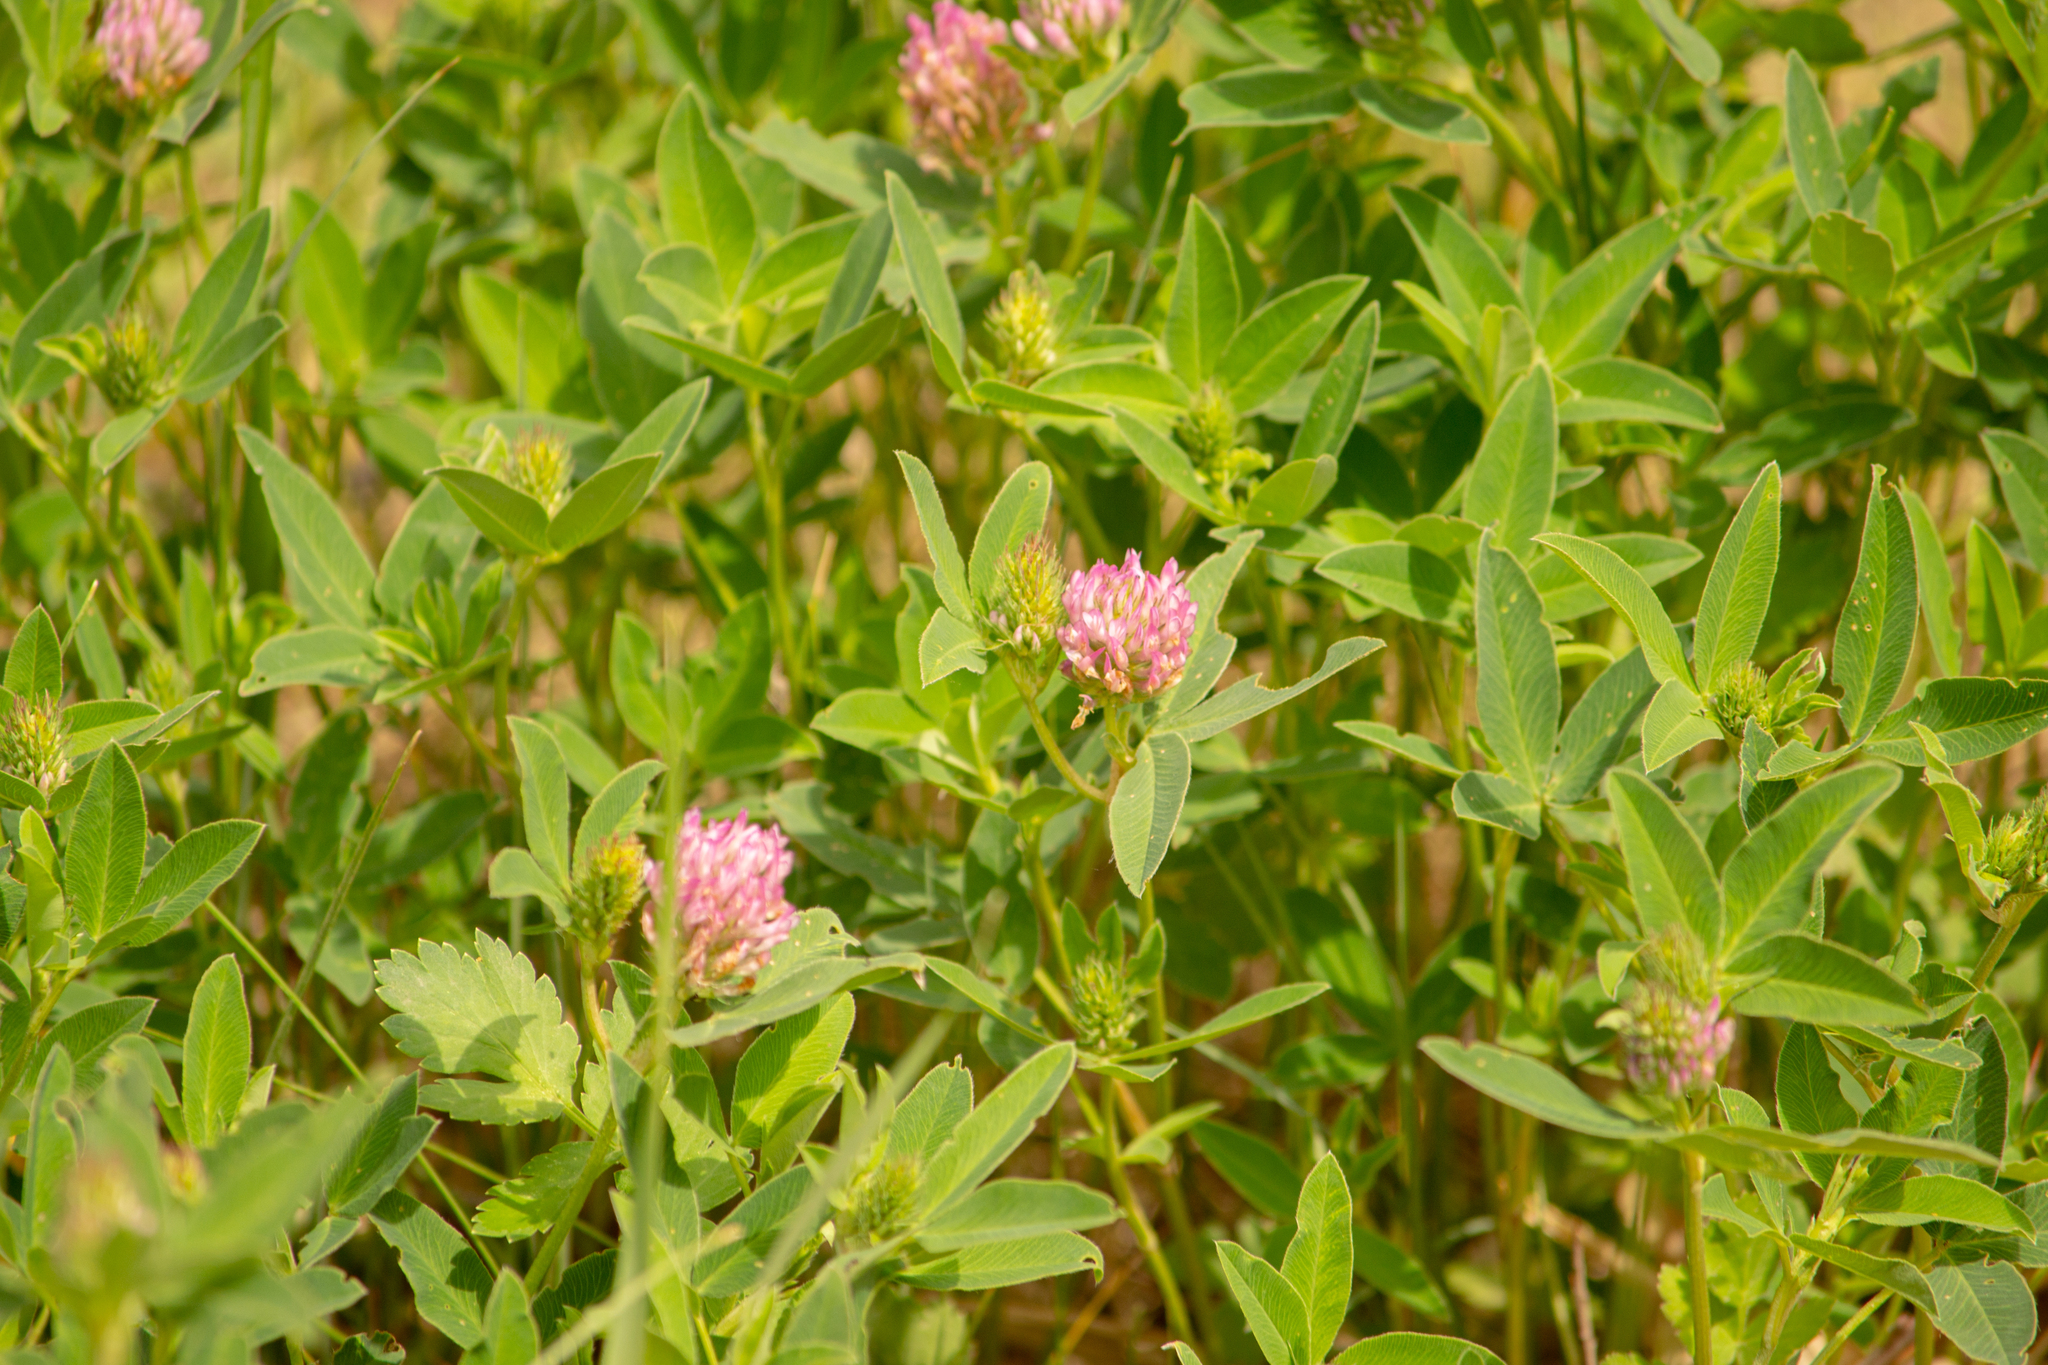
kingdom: Plantae
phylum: Tracheophyta
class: Magnoliopsida
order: Fabales
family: Fabaceae
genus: Trifolium
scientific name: Trifolium medium
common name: Zigzag clover
